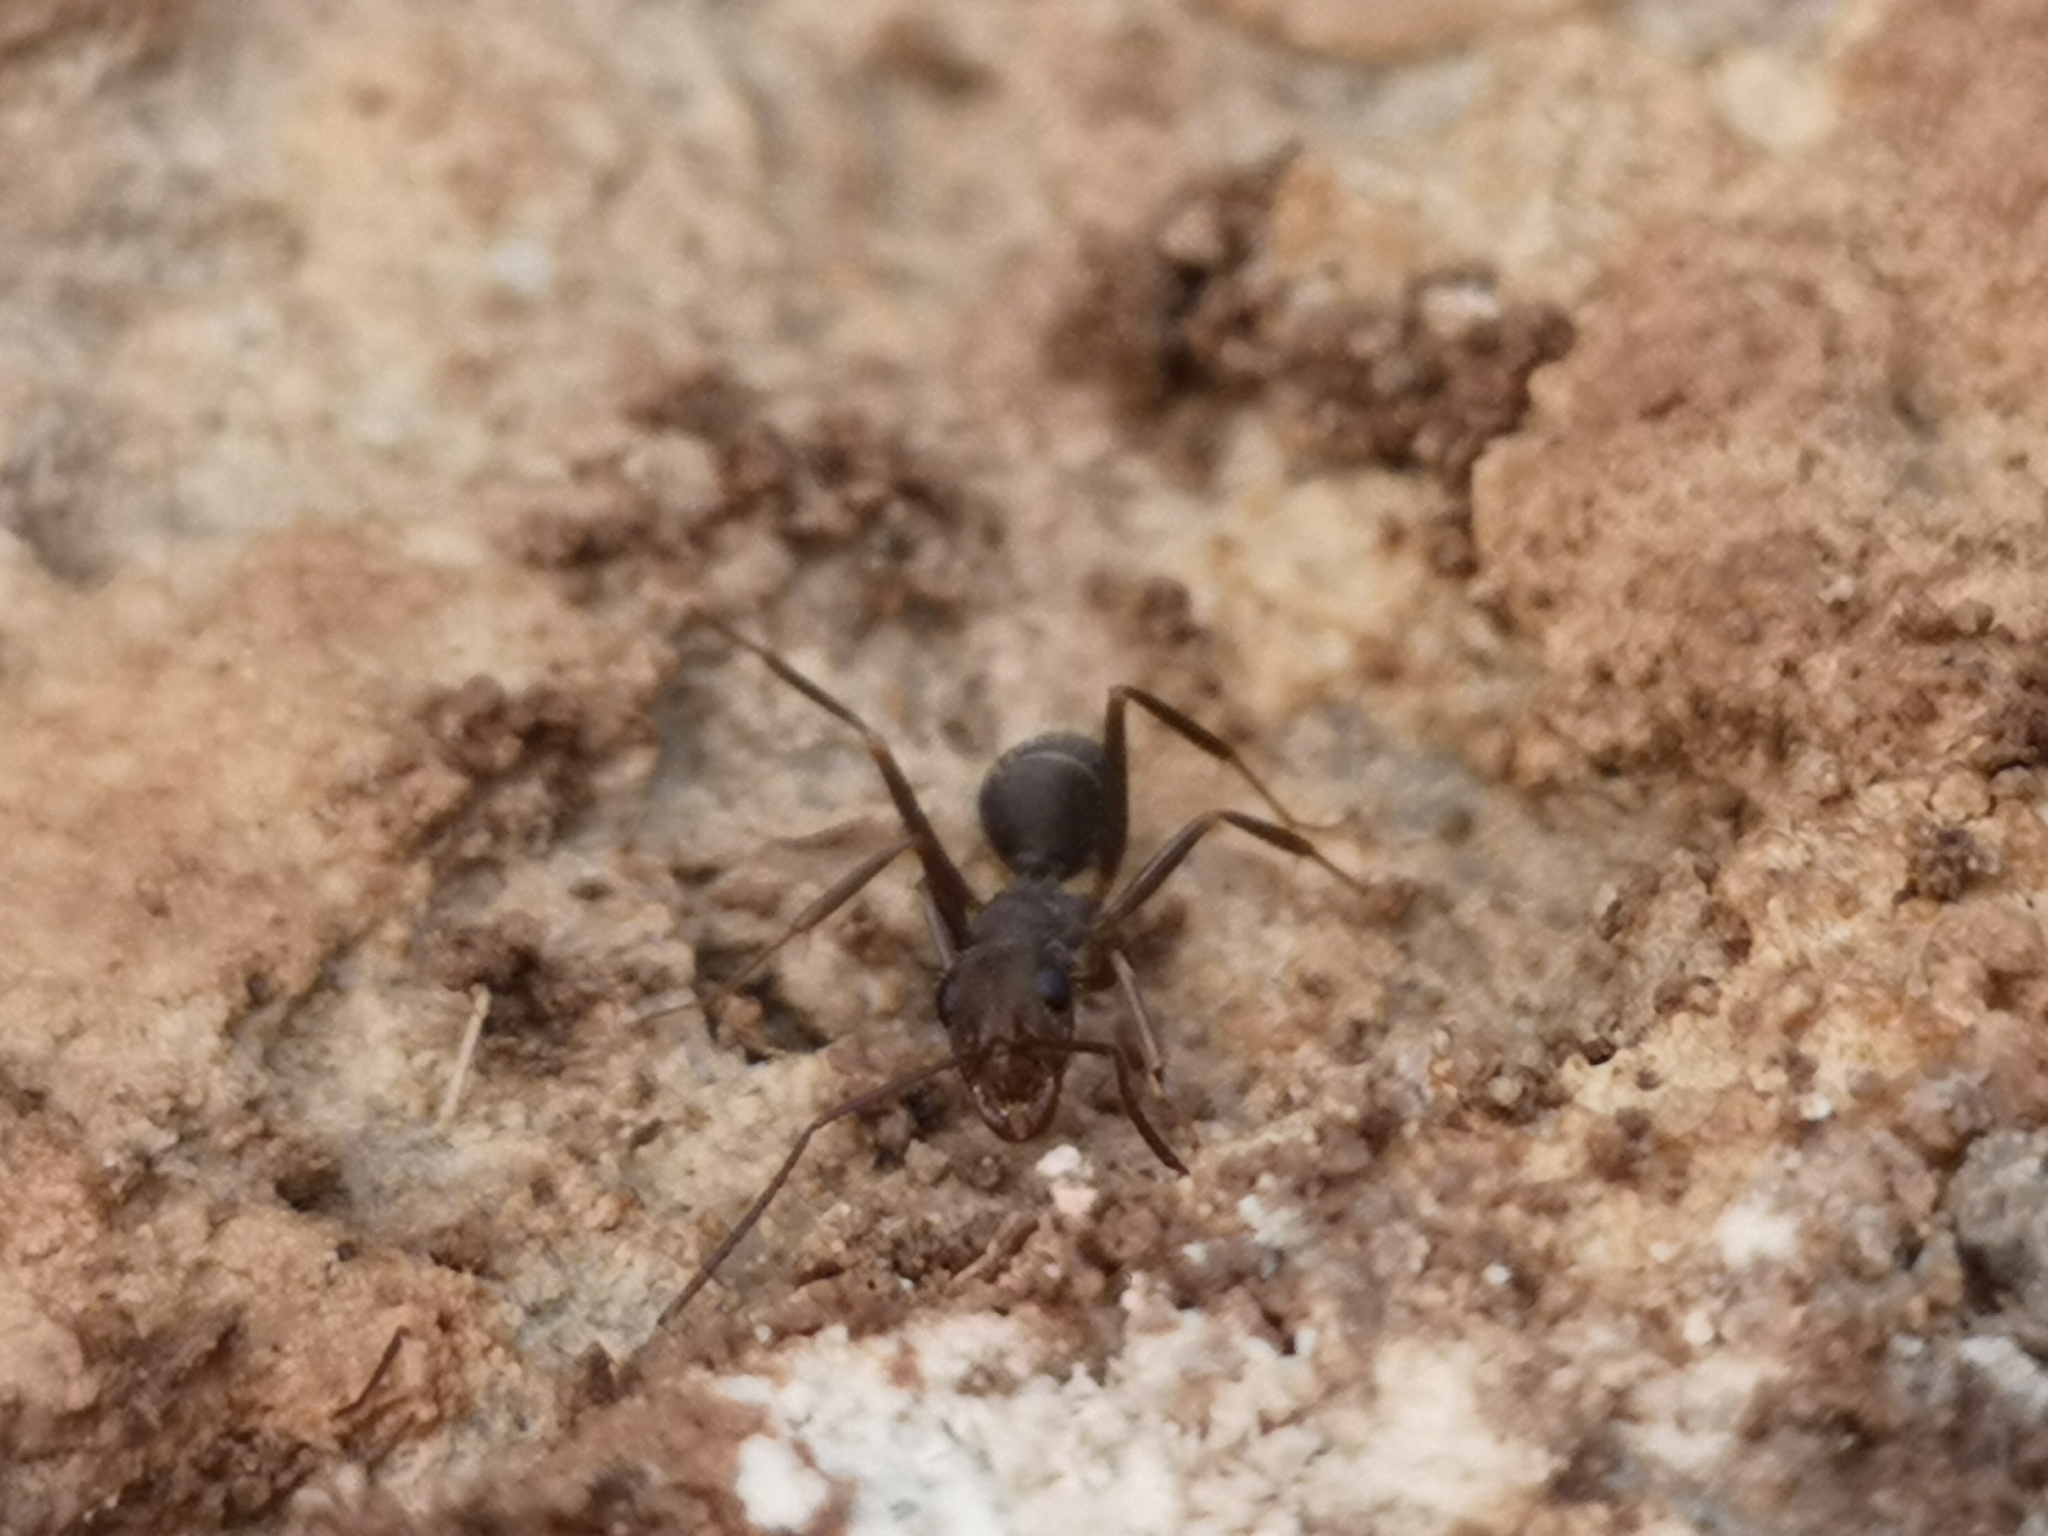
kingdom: Animalia
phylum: Arthropoda
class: Insecta
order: Hymenoptera
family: Formicidae
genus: Formica
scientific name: Formica subrufa
